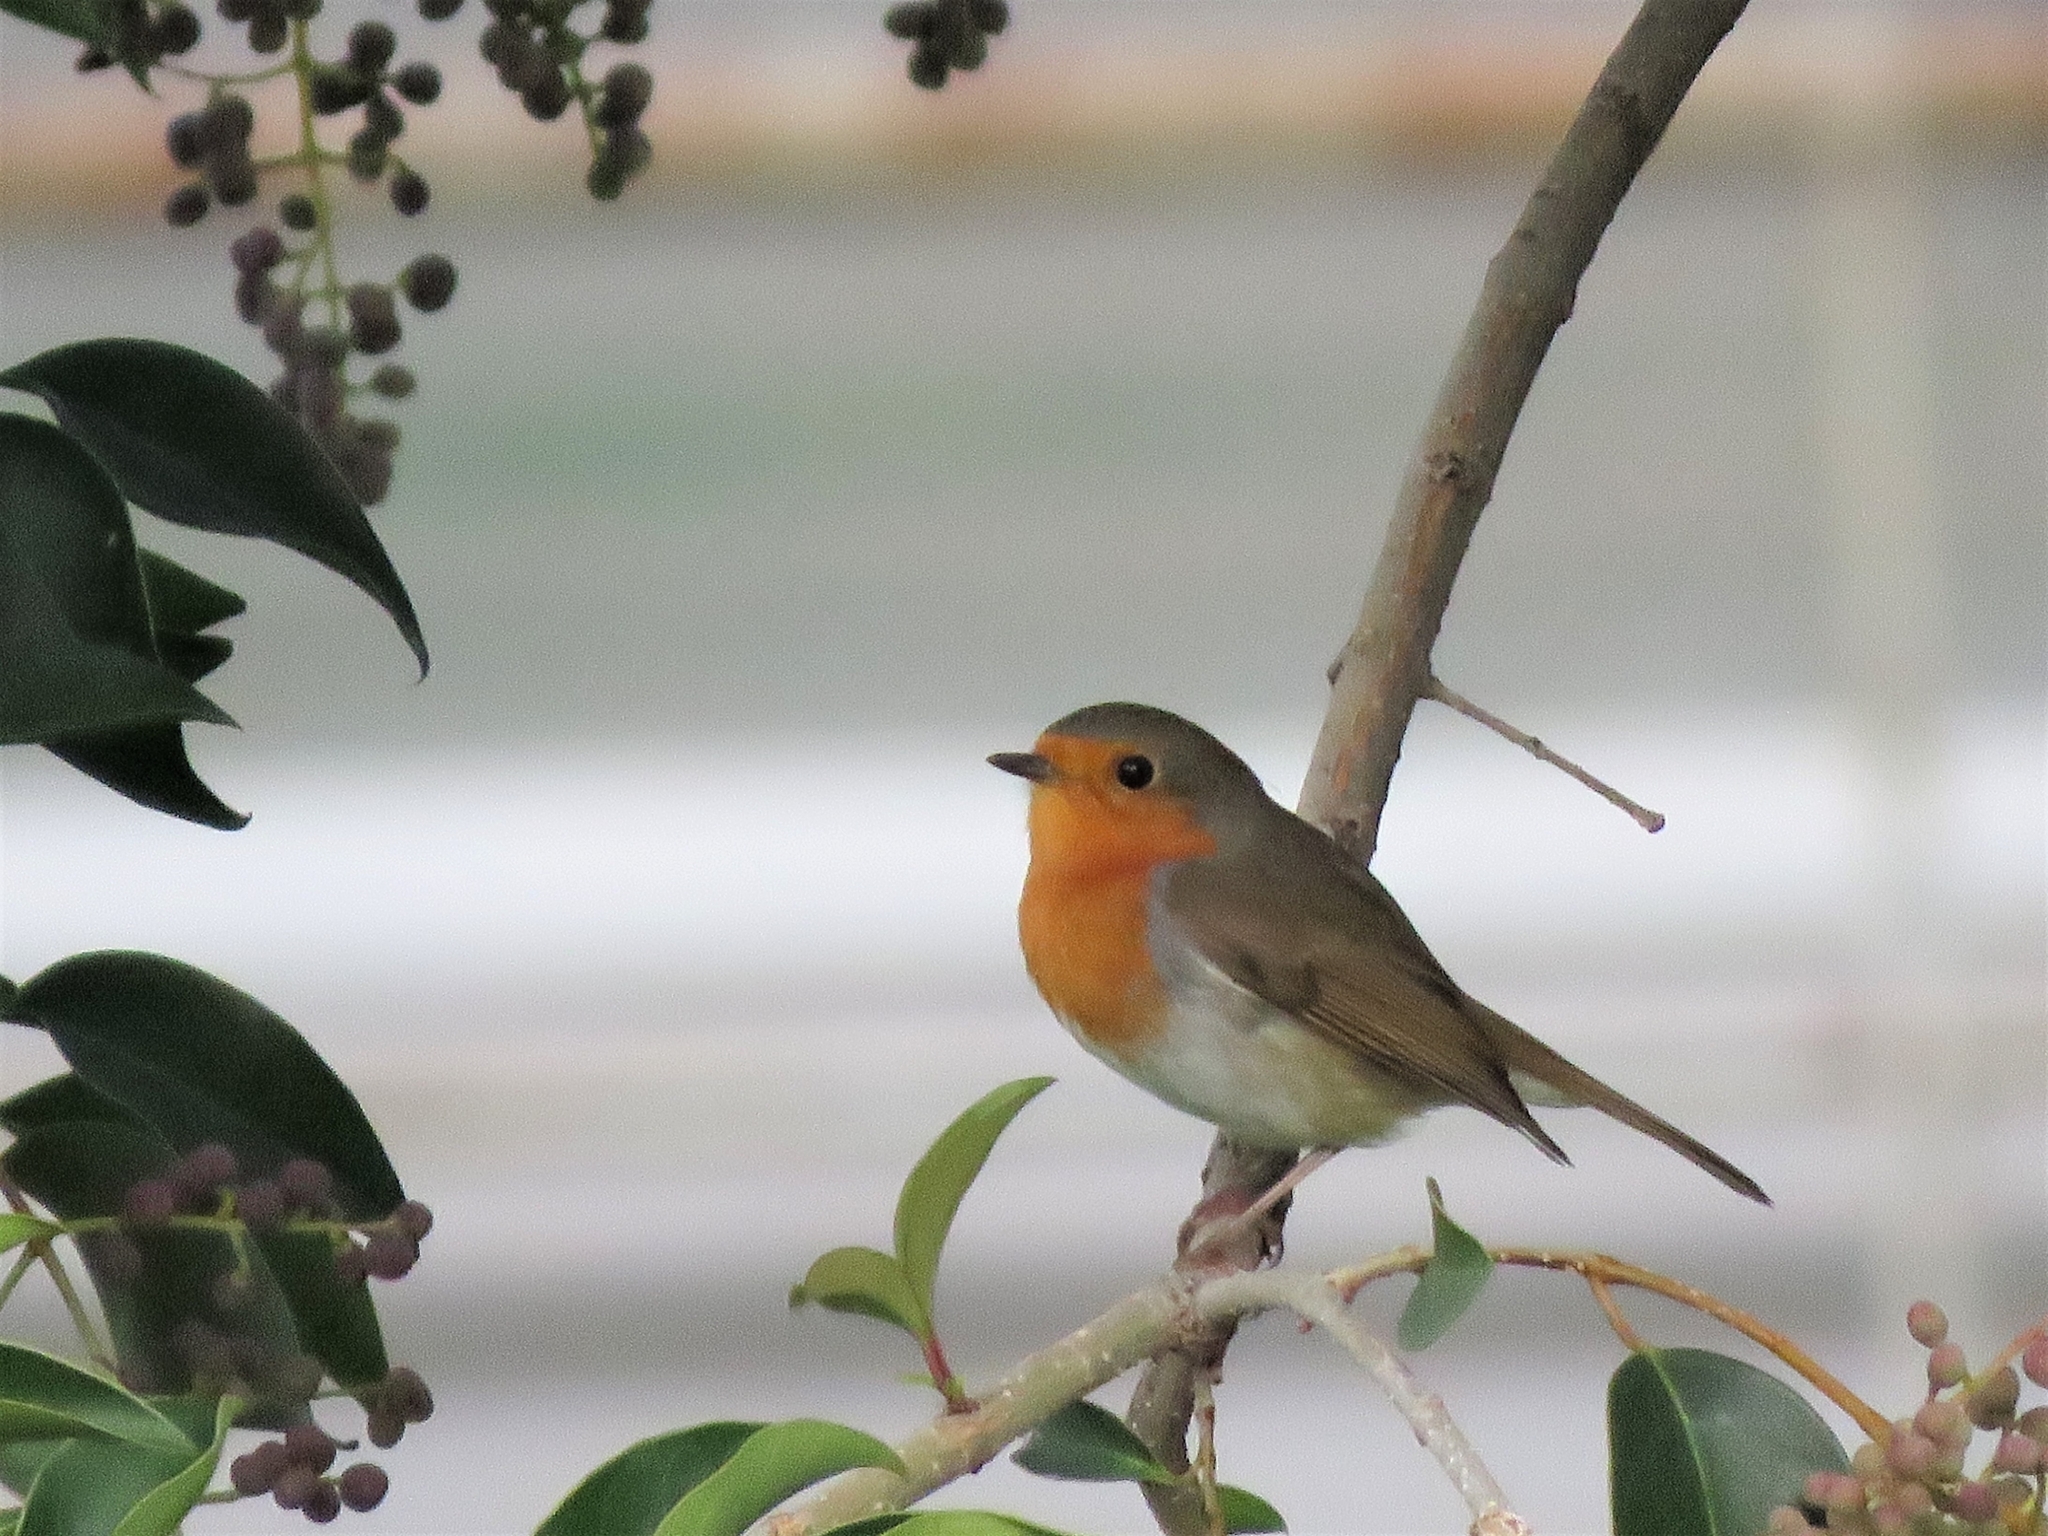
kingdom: Animalia
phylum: Chordata
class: Aves
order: Passeriformes
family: Muscicapidae
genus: Erithacus
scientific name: Erithacus rubecula
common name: European robin
